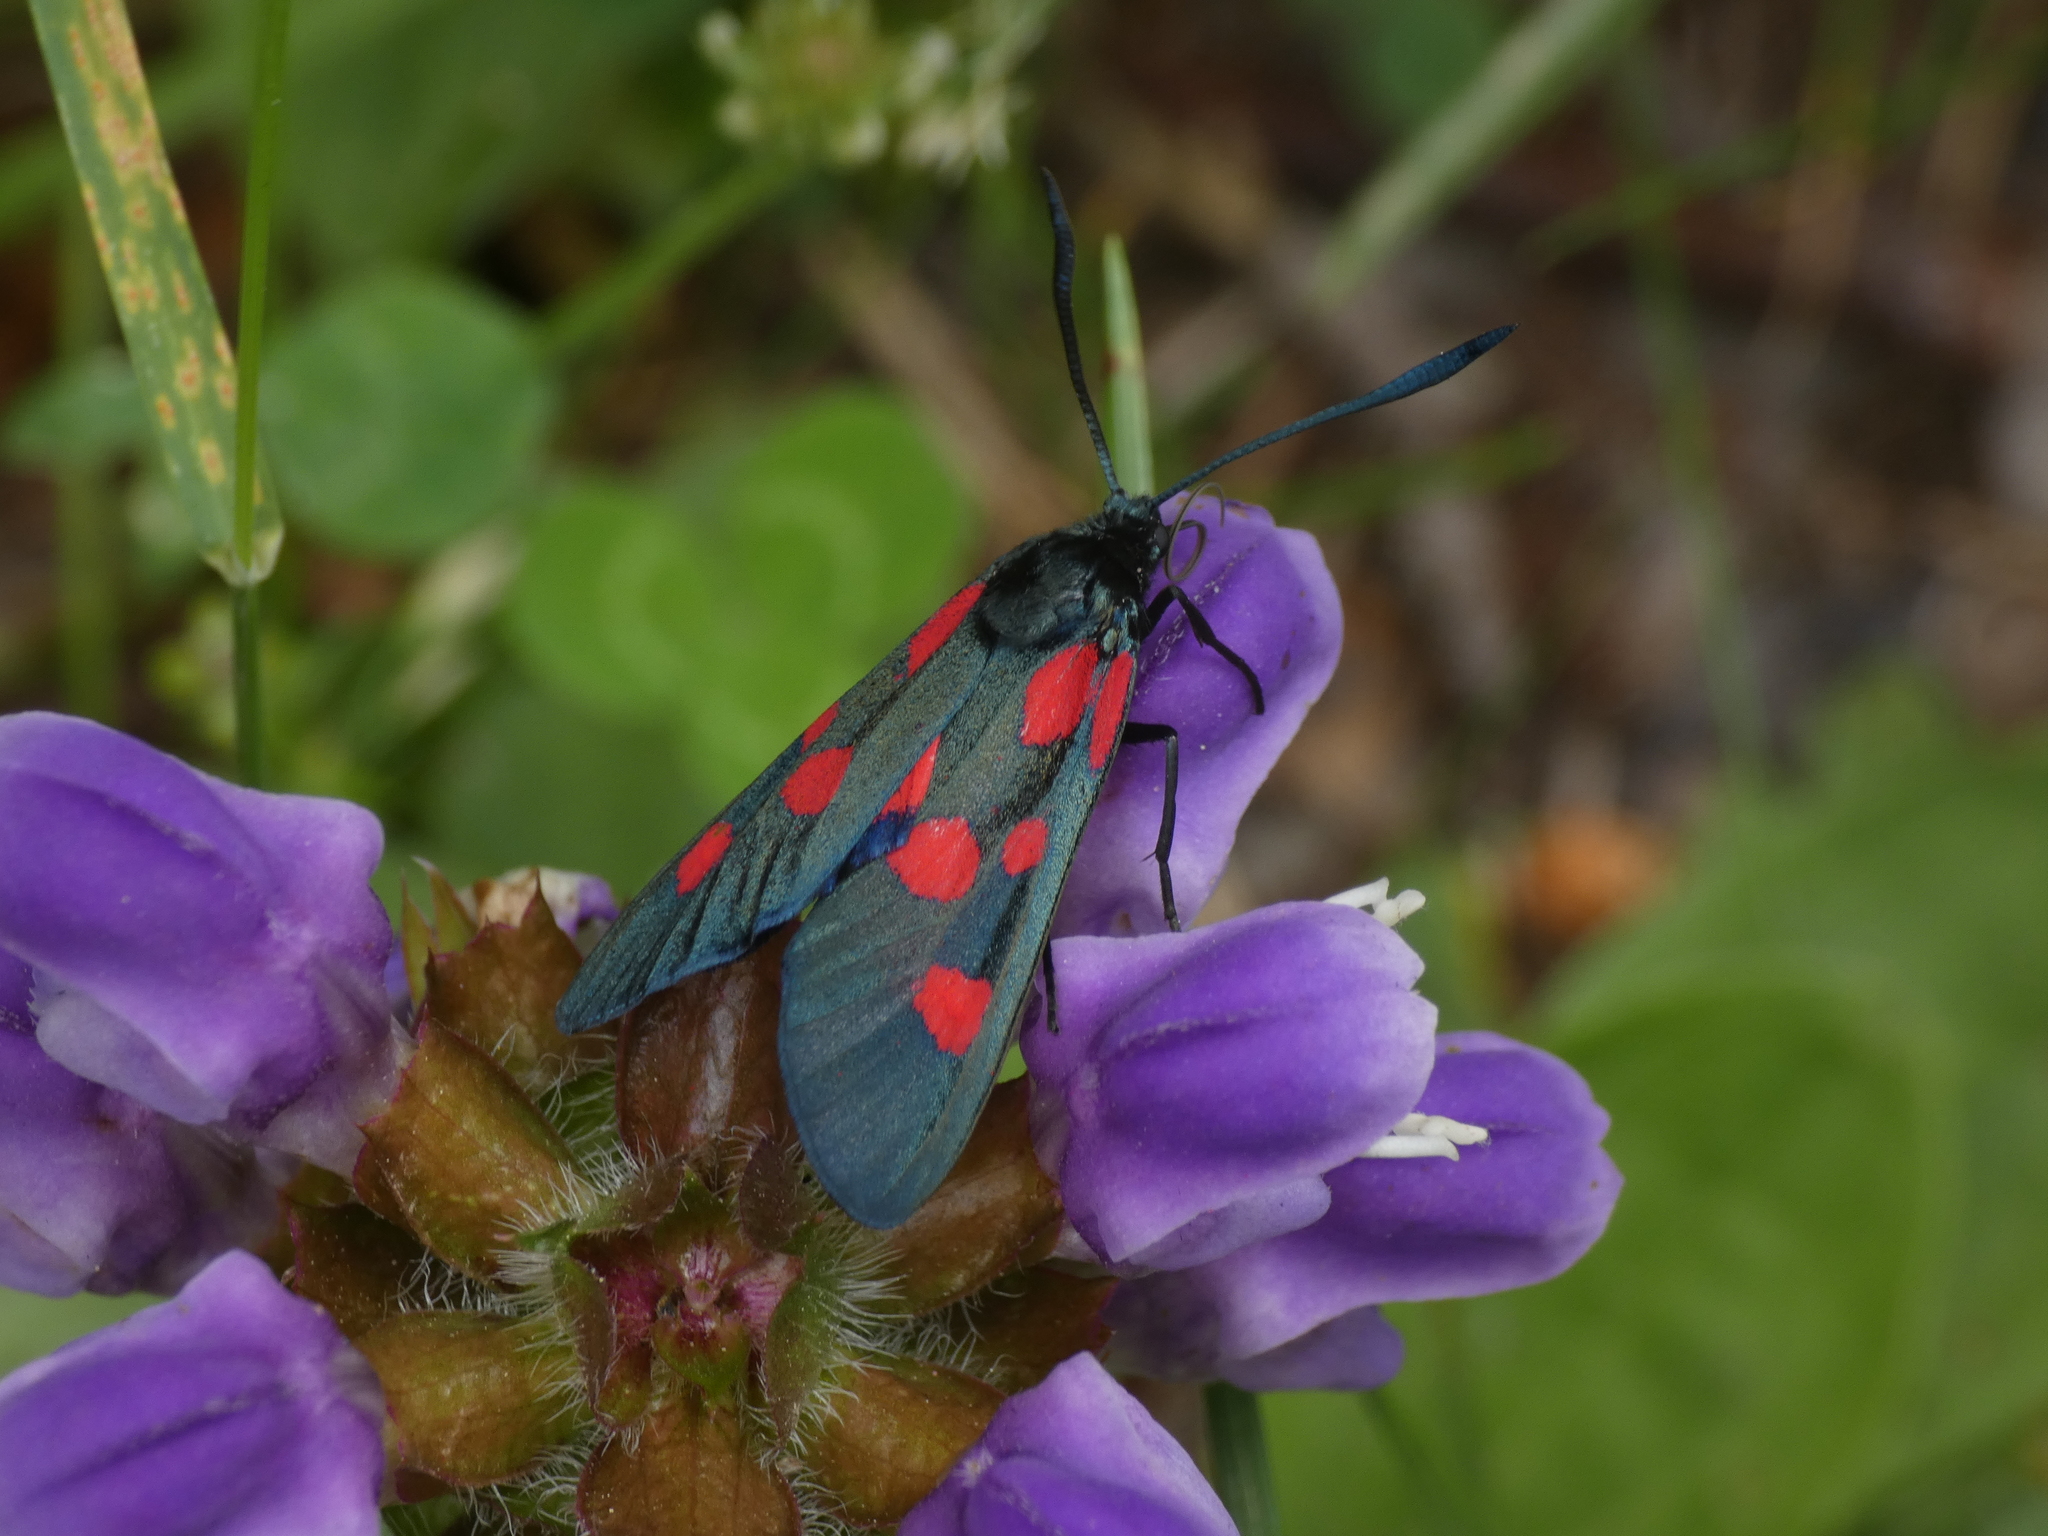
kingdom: Animalia
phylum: Arthropoda
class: Insecta
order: Lepidoptera
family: Zygaenidae
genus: Zygaena
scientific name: Zygaena trifolii
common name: Five-spot burnet
